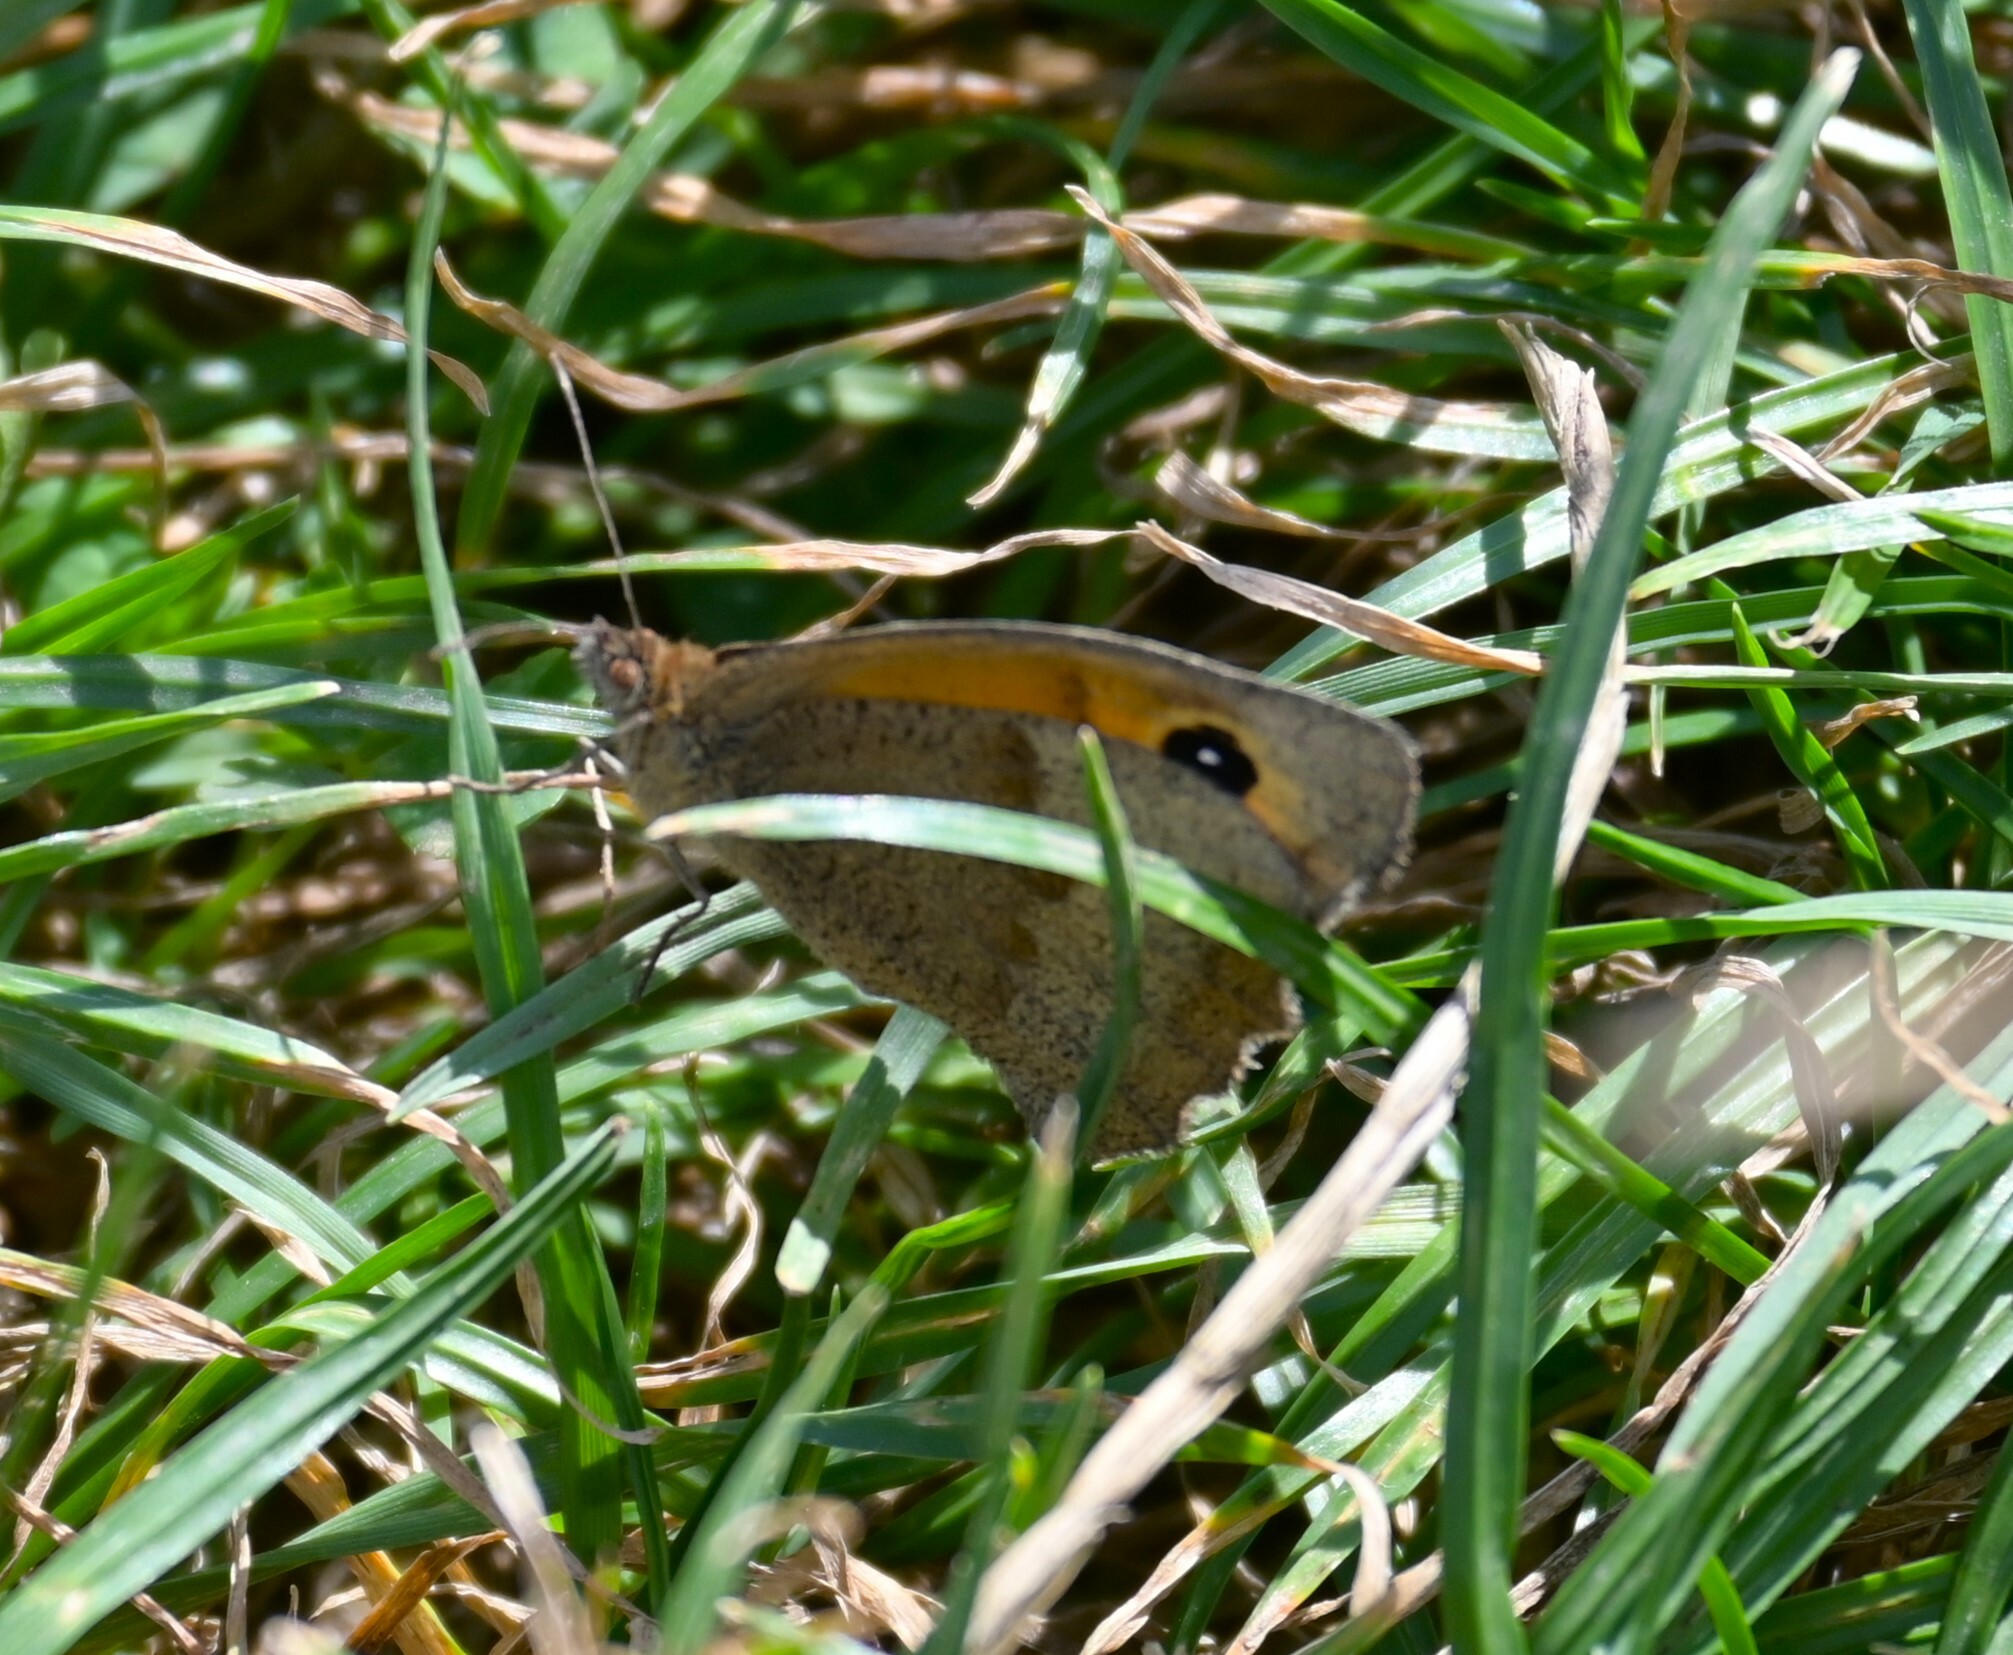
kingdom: Animalia
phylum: Arthropoda
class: Insecta
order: Lepidoptera
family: Nymphalidae
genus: Maniola
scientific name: Maniola jurtina
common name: Meadow brown
